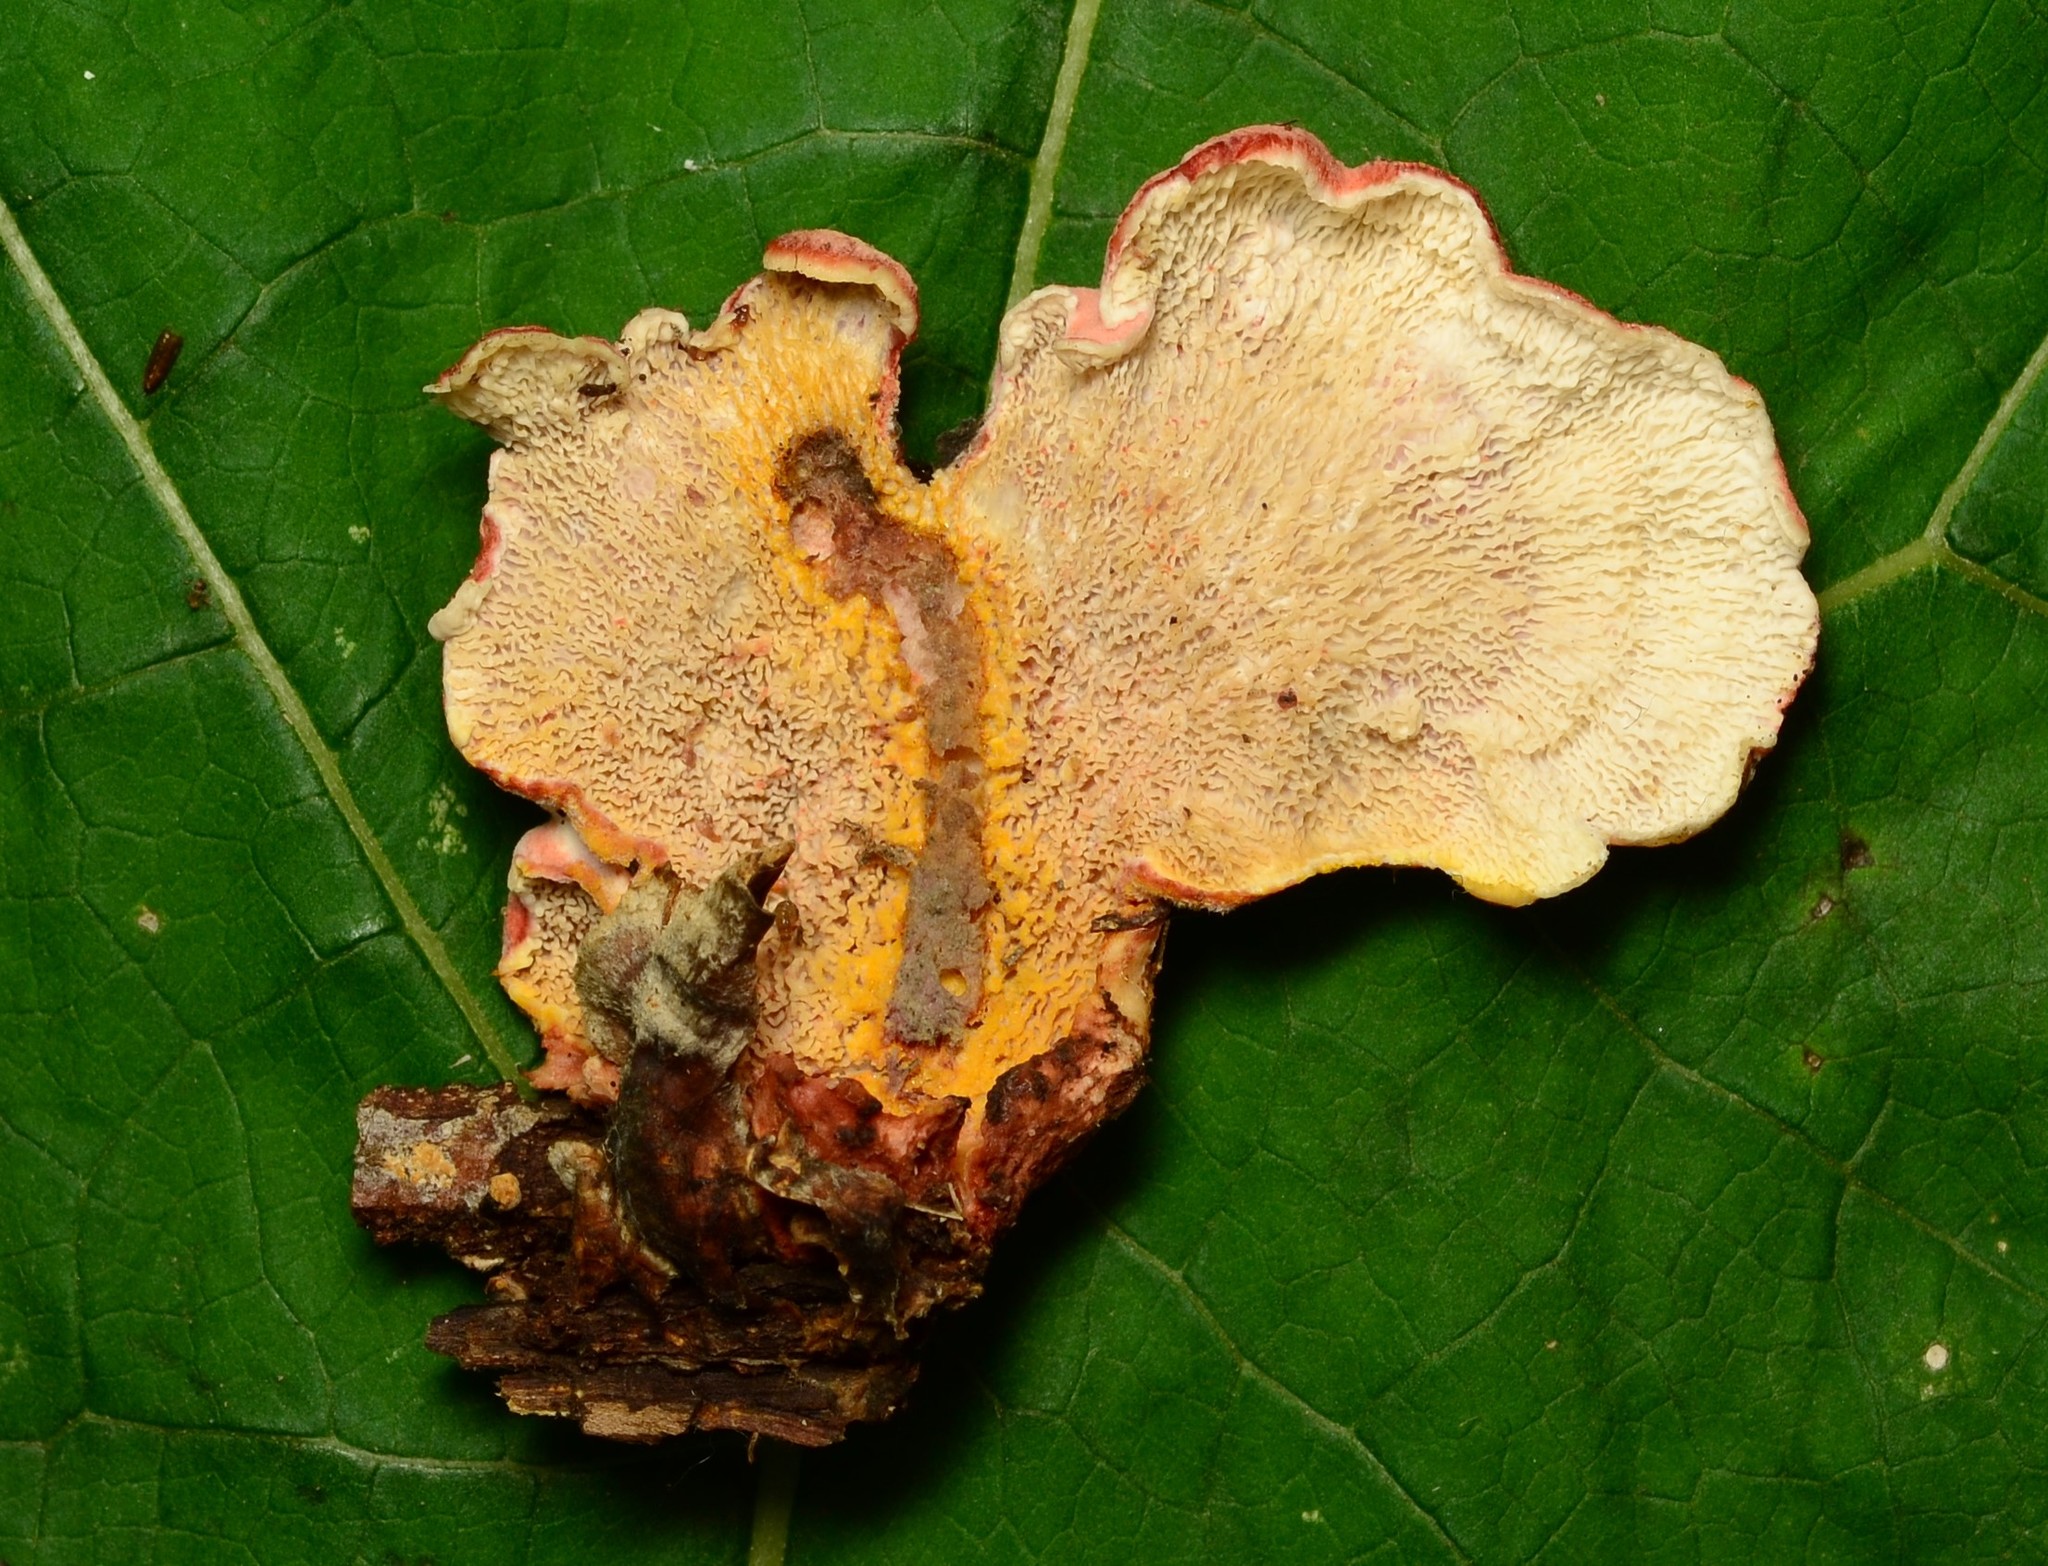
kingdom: Fungi
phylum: Basidiomycota
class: Agaricomycetes
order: Polyporales
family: Irpicaceae
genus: Byssomerulius
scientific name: Byssomerulius incarnatus
